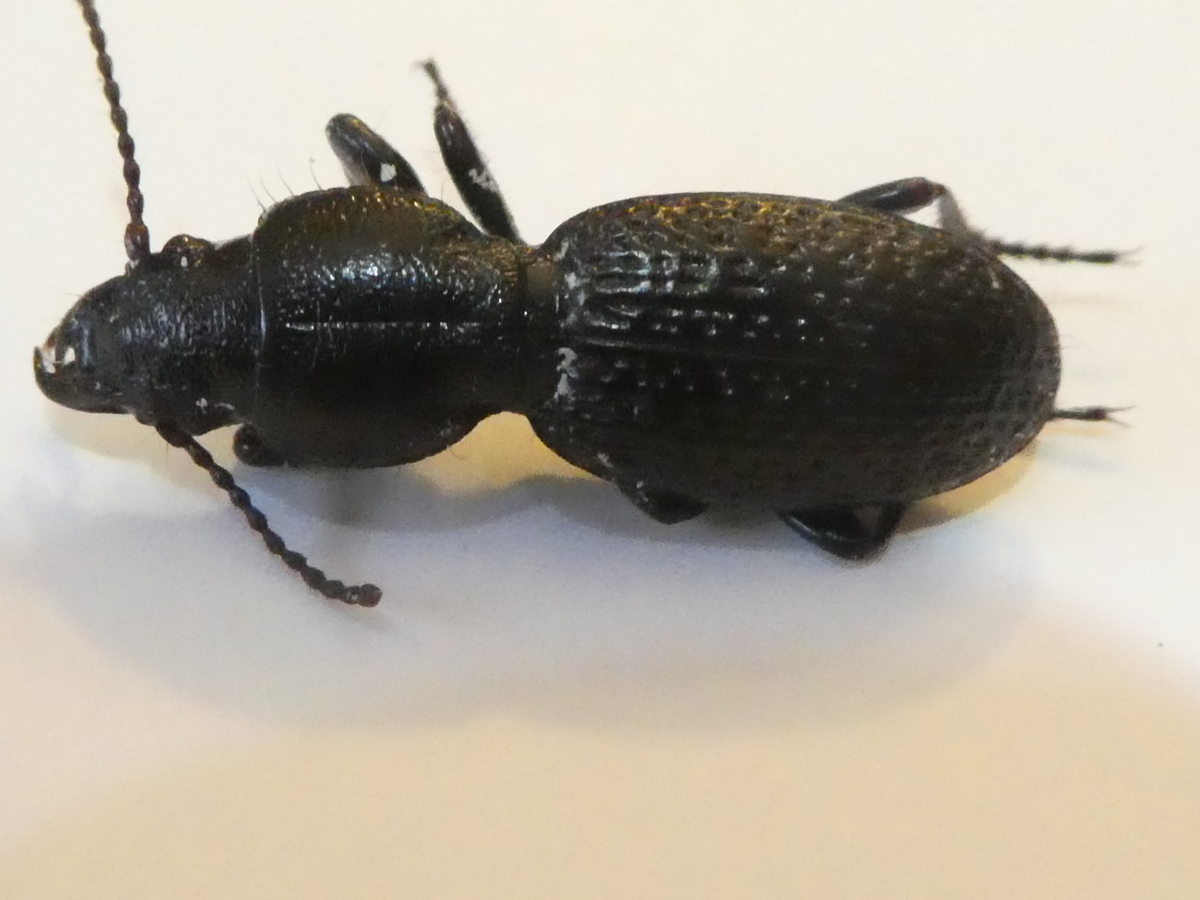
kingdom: Animalia
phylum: Arthropoda
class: Insecta
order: Coleoptera
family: Carabidae
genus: Mecodema
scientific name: Mecodema rugiceps
